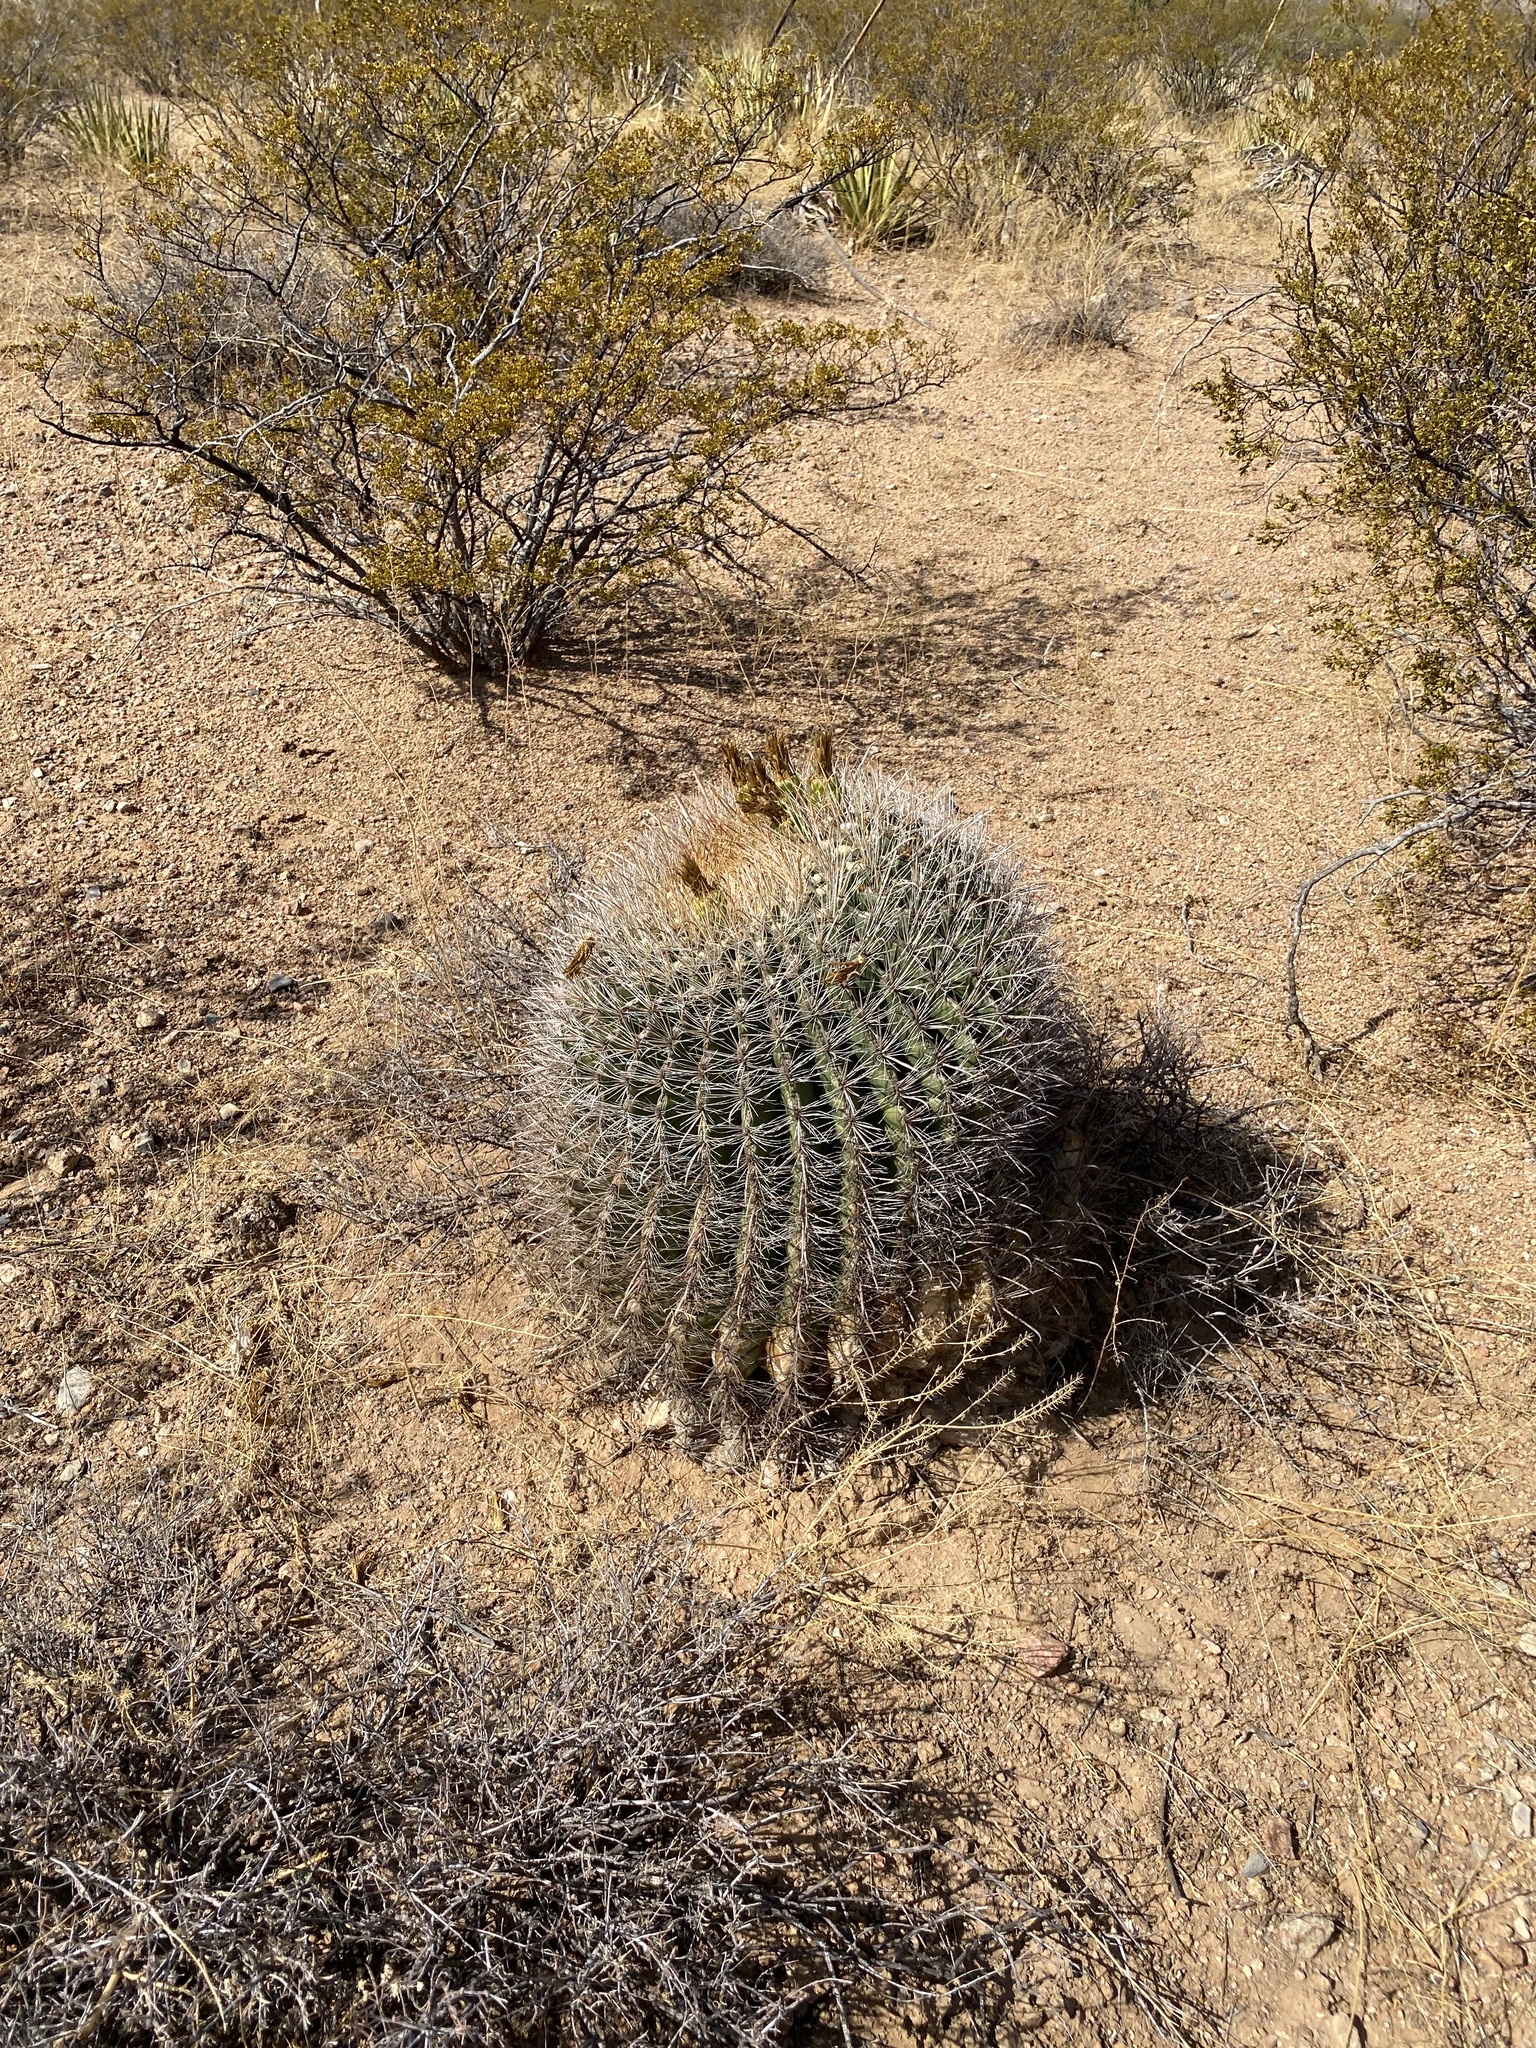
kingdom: Plantae
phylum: Tracheophyta
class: Magnoliopsida
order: Caryophyllales
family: Cactaceae
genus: Ferocactus
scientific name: Ferocactus wislizeni
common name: Candy barrel cactus
